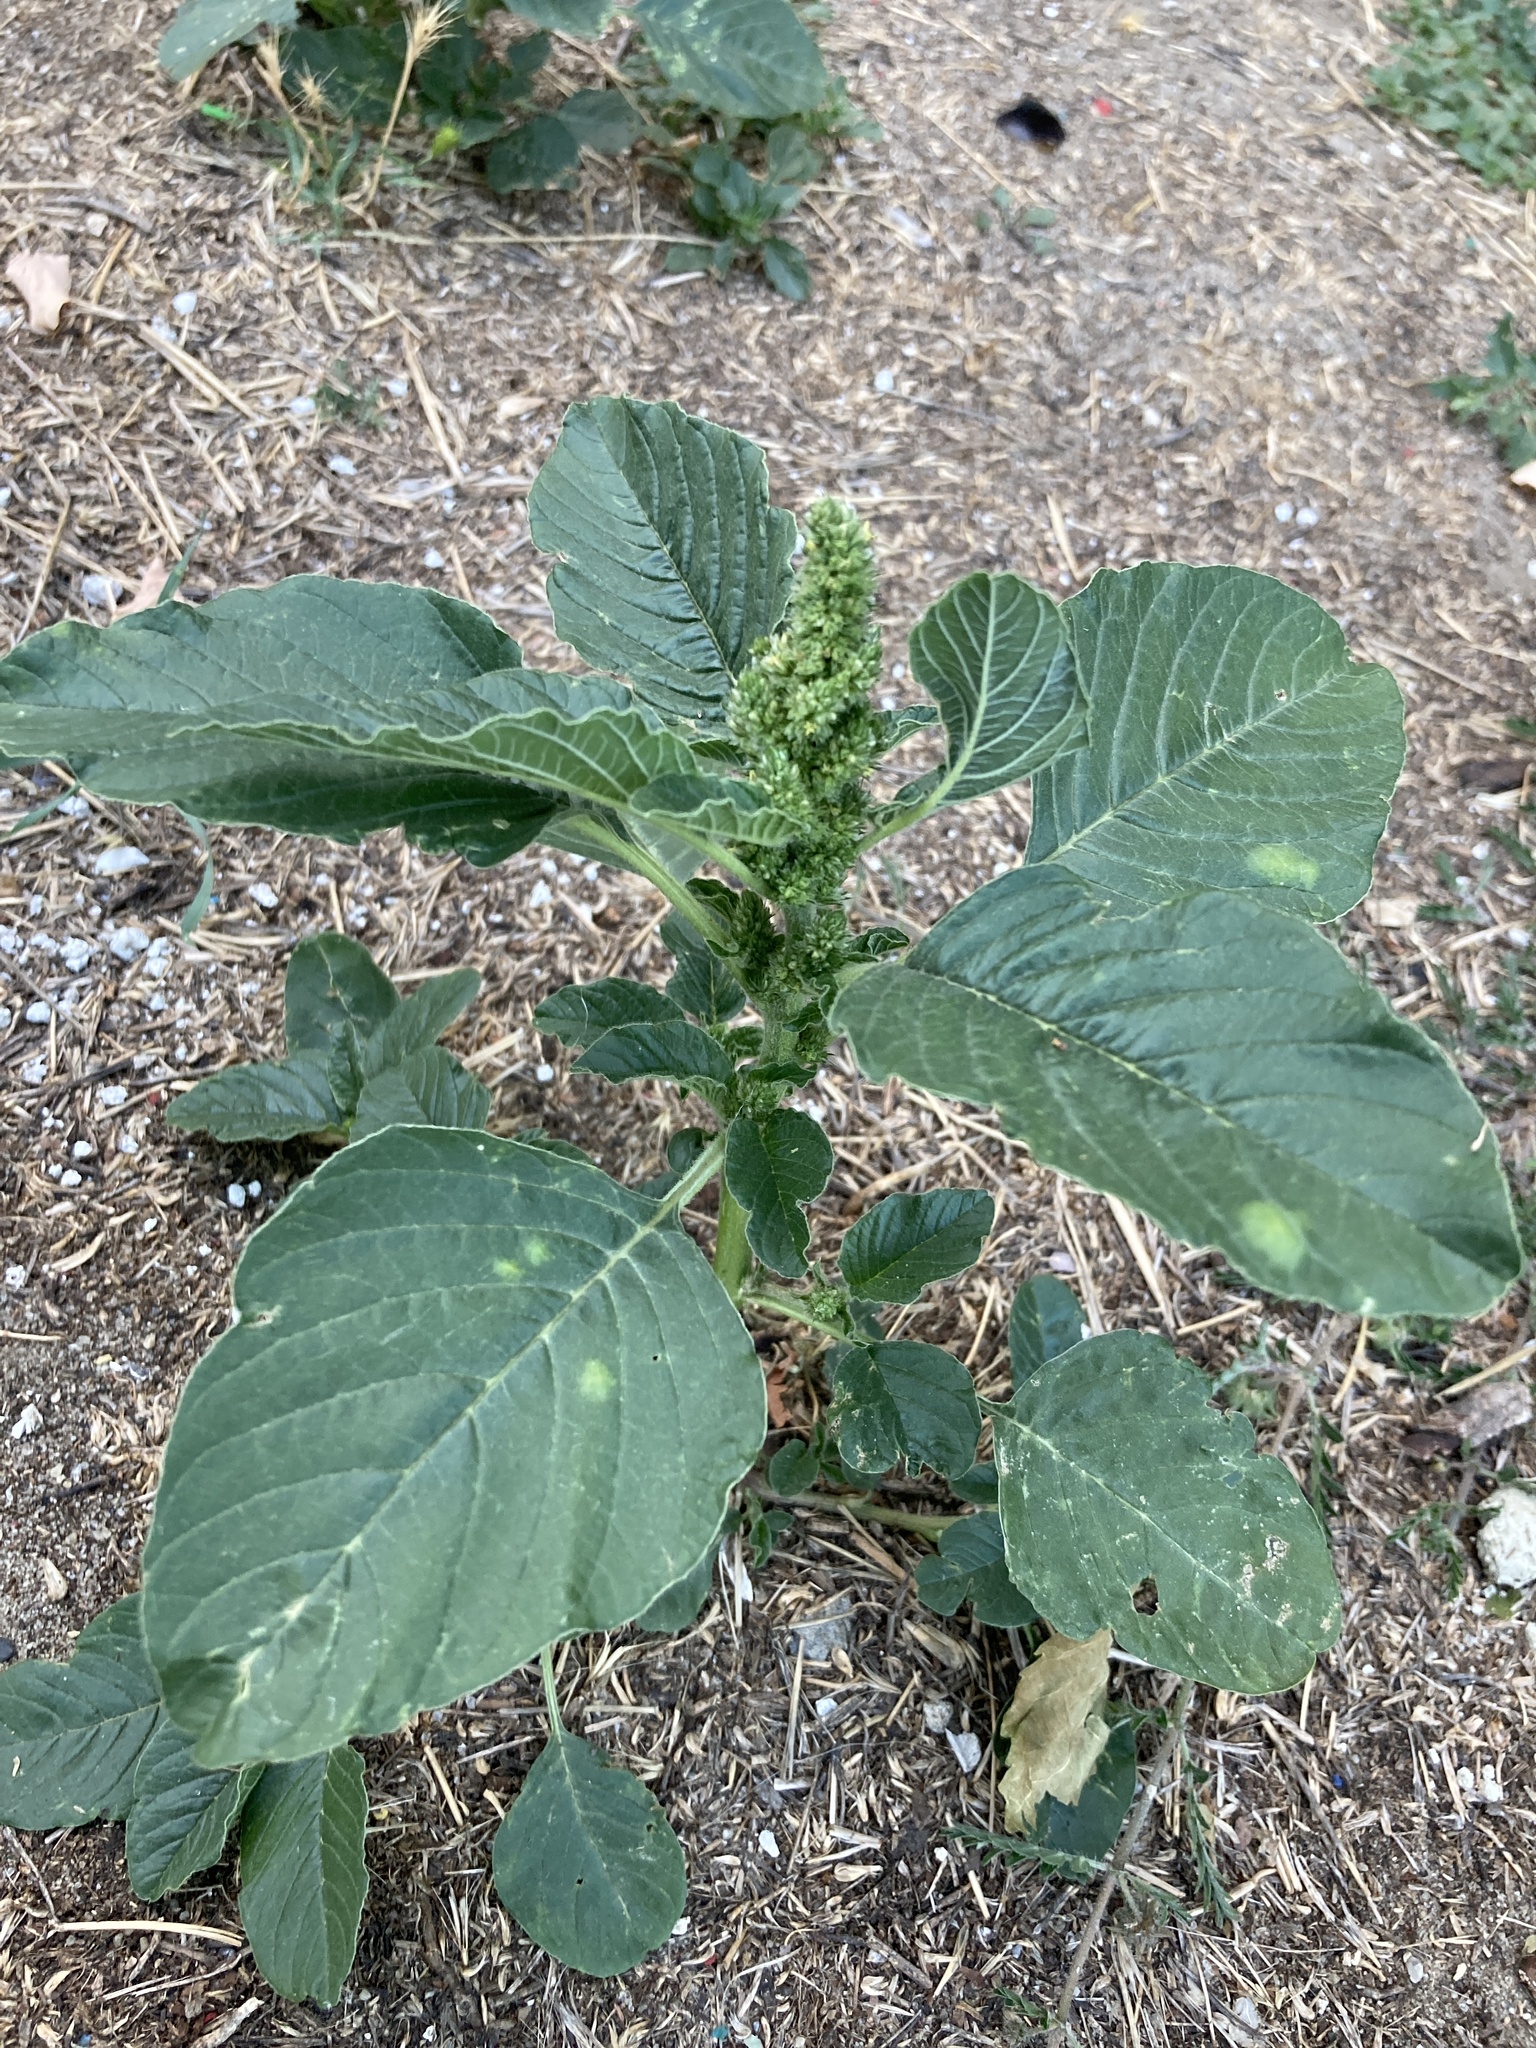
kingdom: Plantae
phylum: Tracheophyta
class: Magnoliopsida
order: Caryophyllales
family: Amaranthaceae
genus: Amaranthus
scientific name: Amaranthus retroflexus
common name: Redroot amaranth
